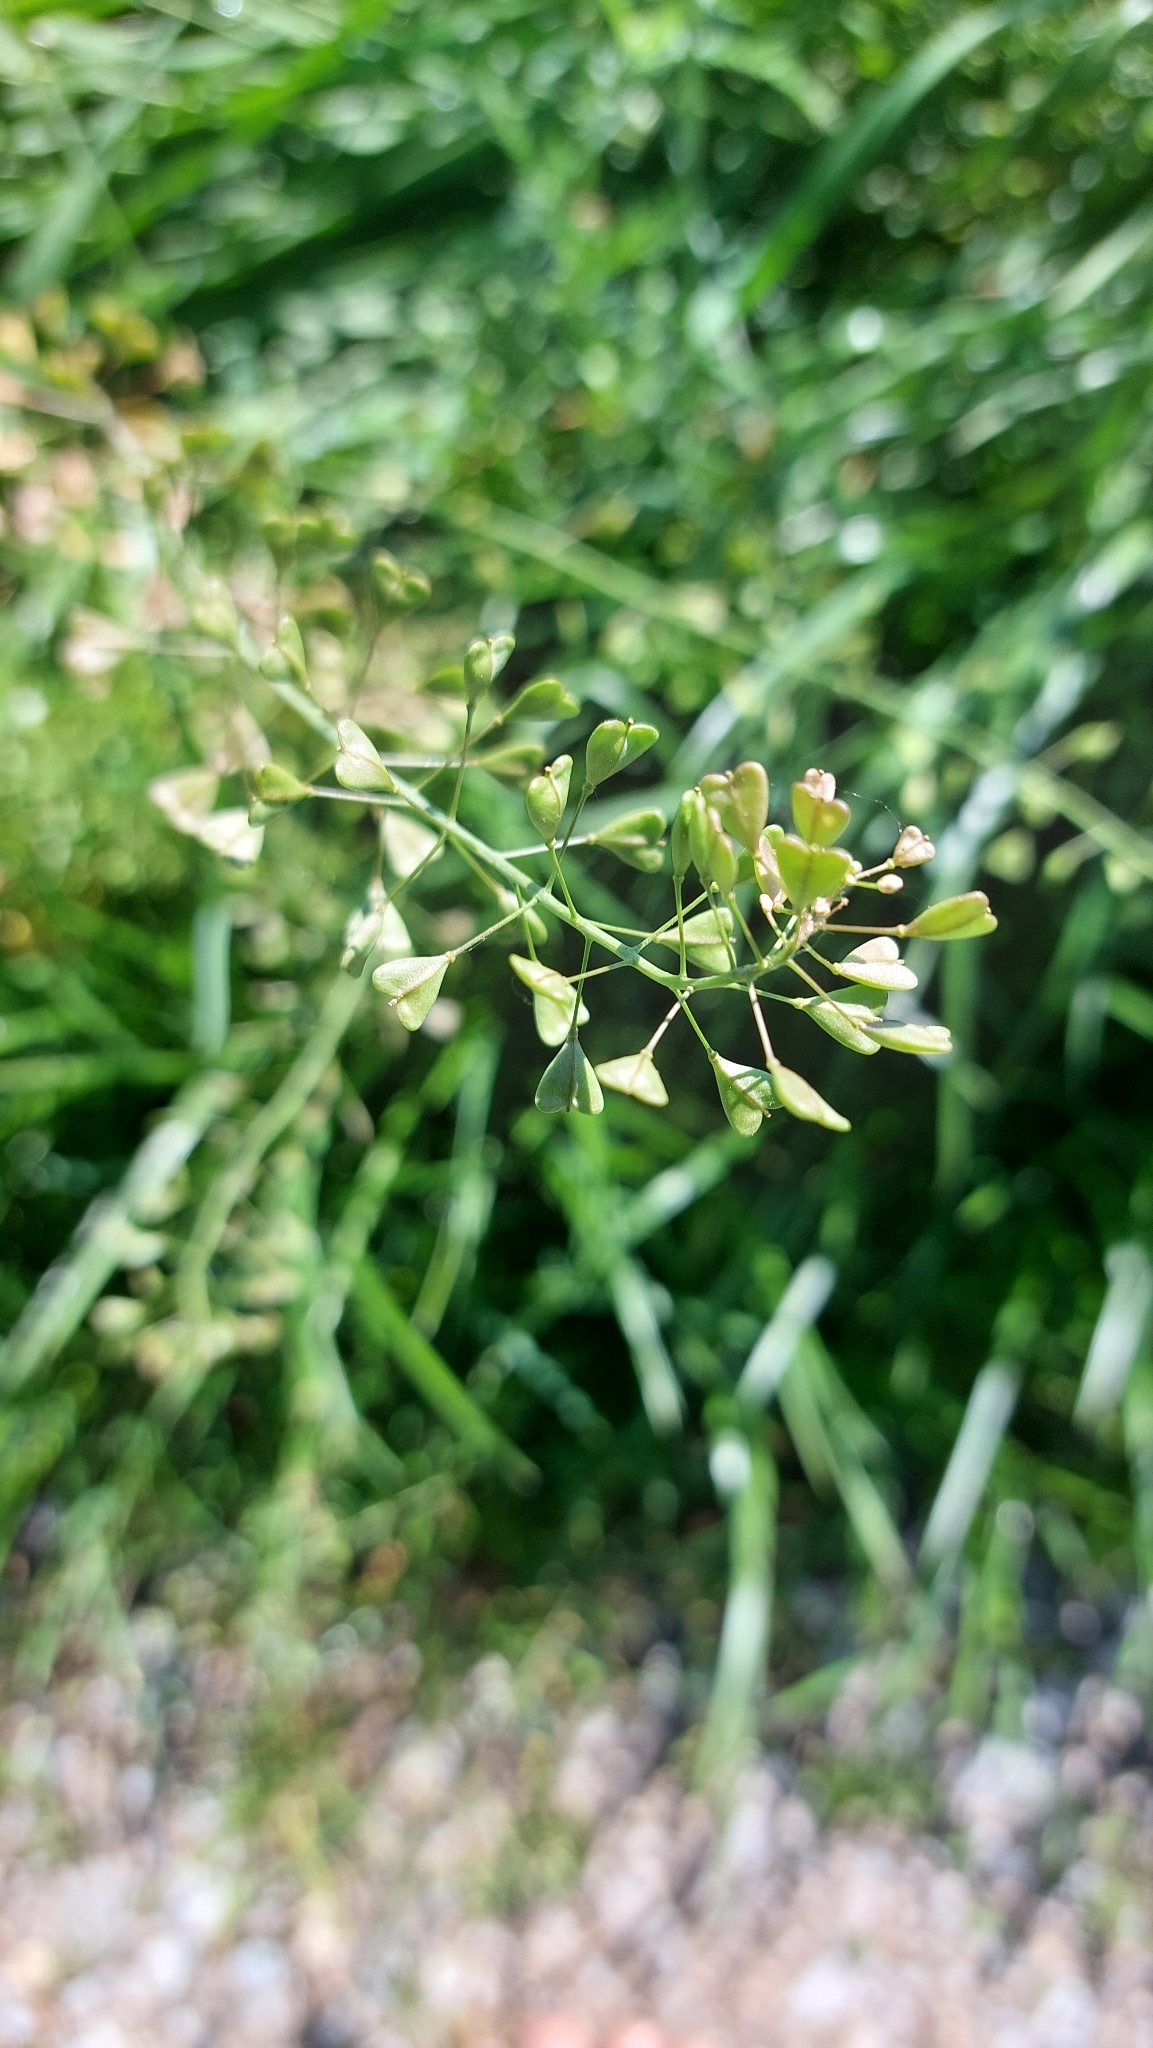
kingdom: Plantae
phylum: Tracheophyta
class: Magnoliopsida
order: Brassicales
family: Brassicaceae
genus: Capsella
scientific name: Capsella bursa-pastoris
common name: Shepherd's purse
